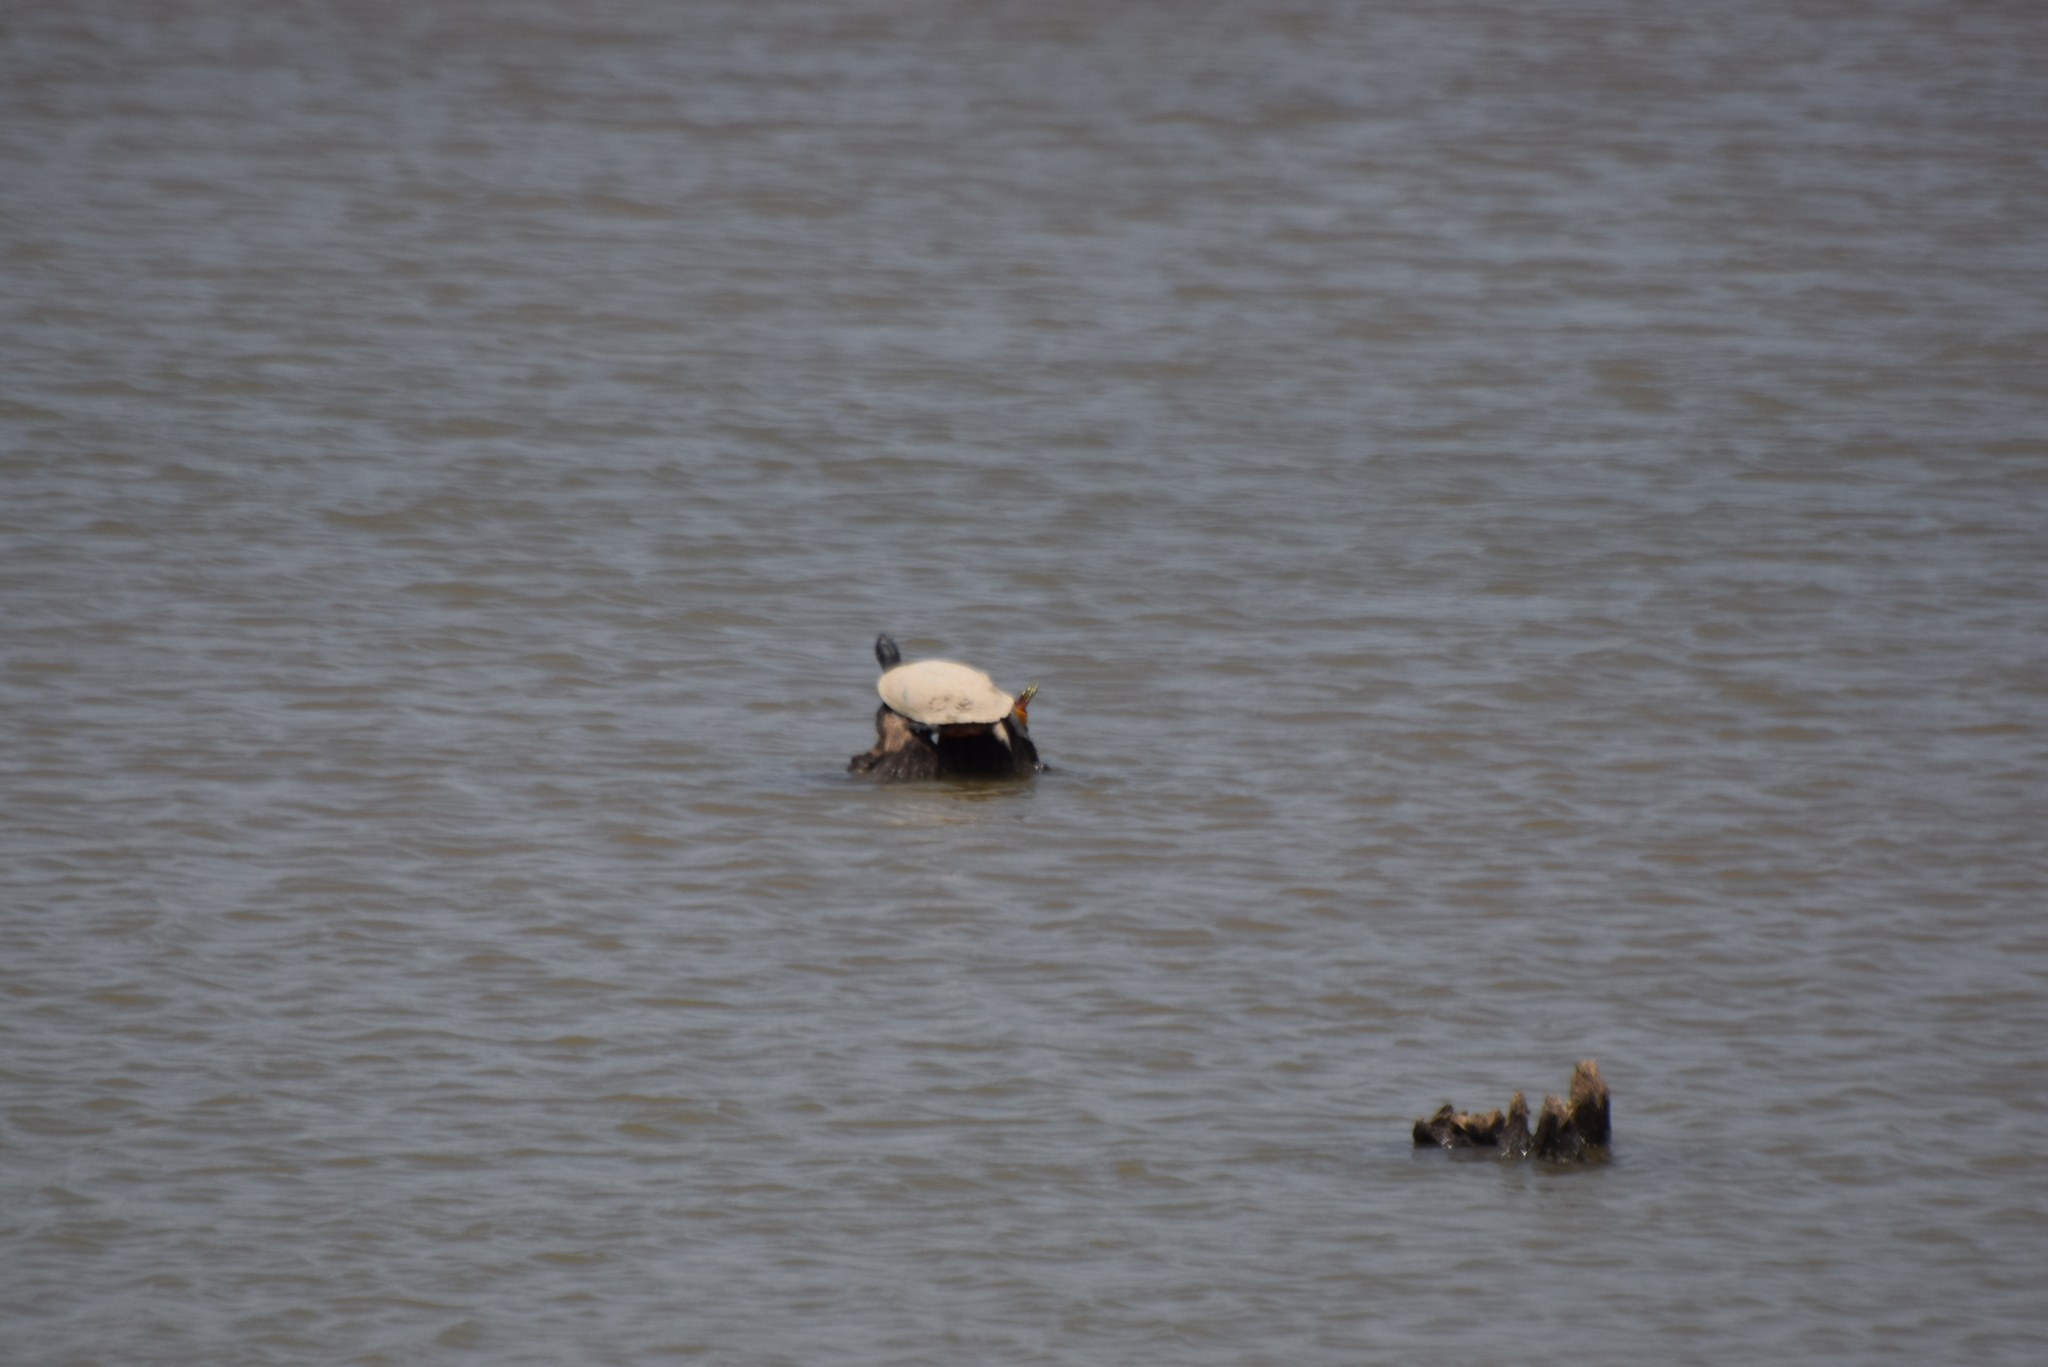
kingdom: Animalia
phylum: Chordata
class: Testudines
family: Emydidae
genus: Chrysemys
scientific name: Chrysemys picta
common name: Painted turtle
